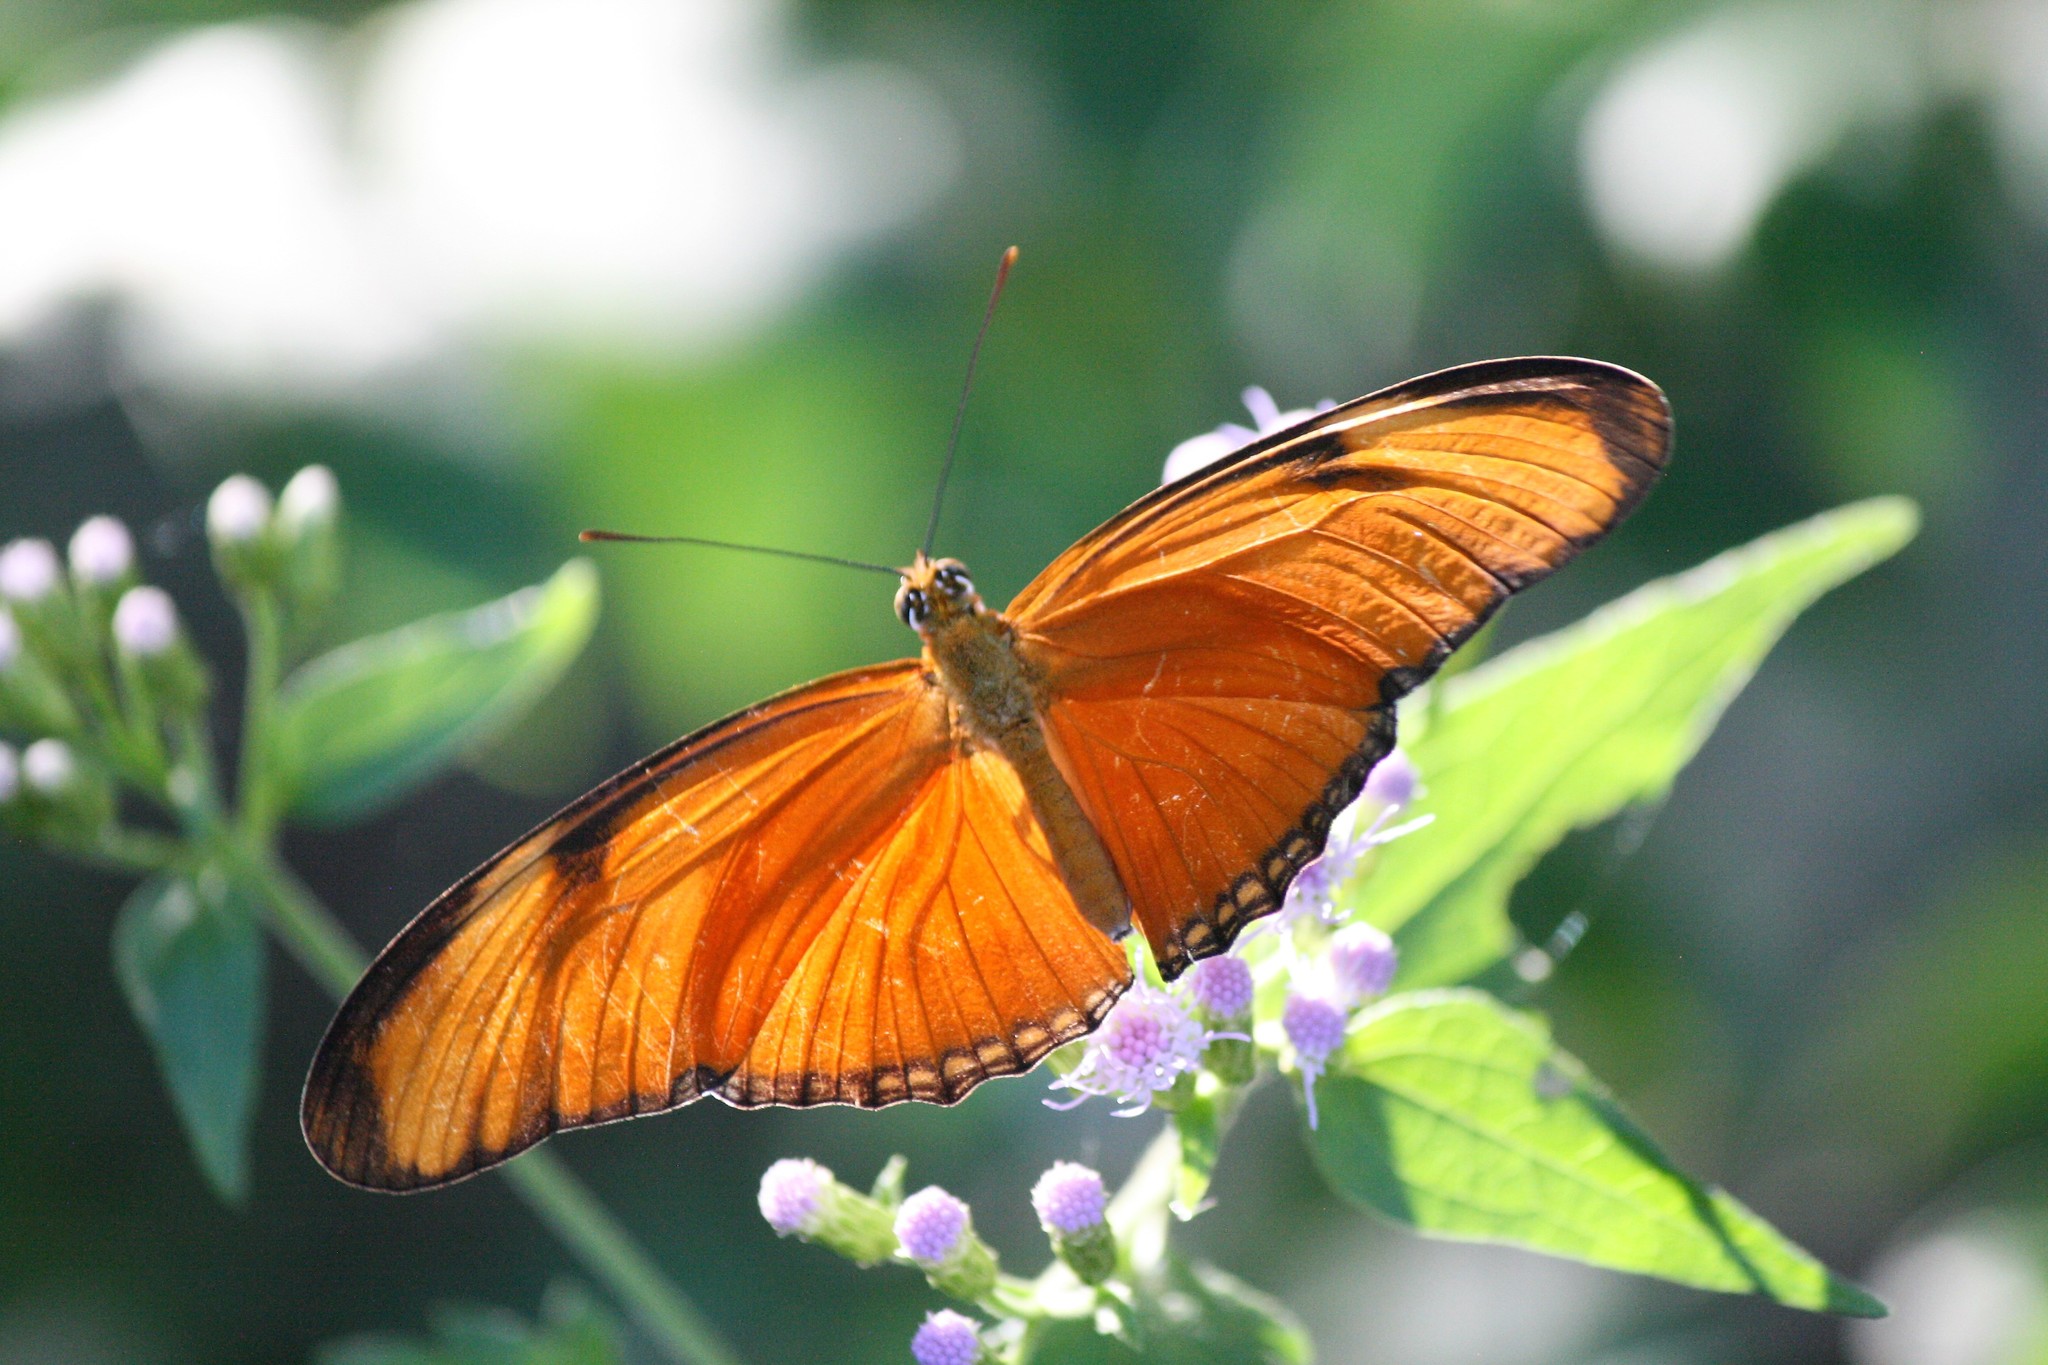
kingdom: Animalia
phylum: Arthropoda
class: Insecta
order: Lepidoptera
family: Nymphalidae
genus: Dryas
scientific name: Dryas iulia
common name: Flambeau
